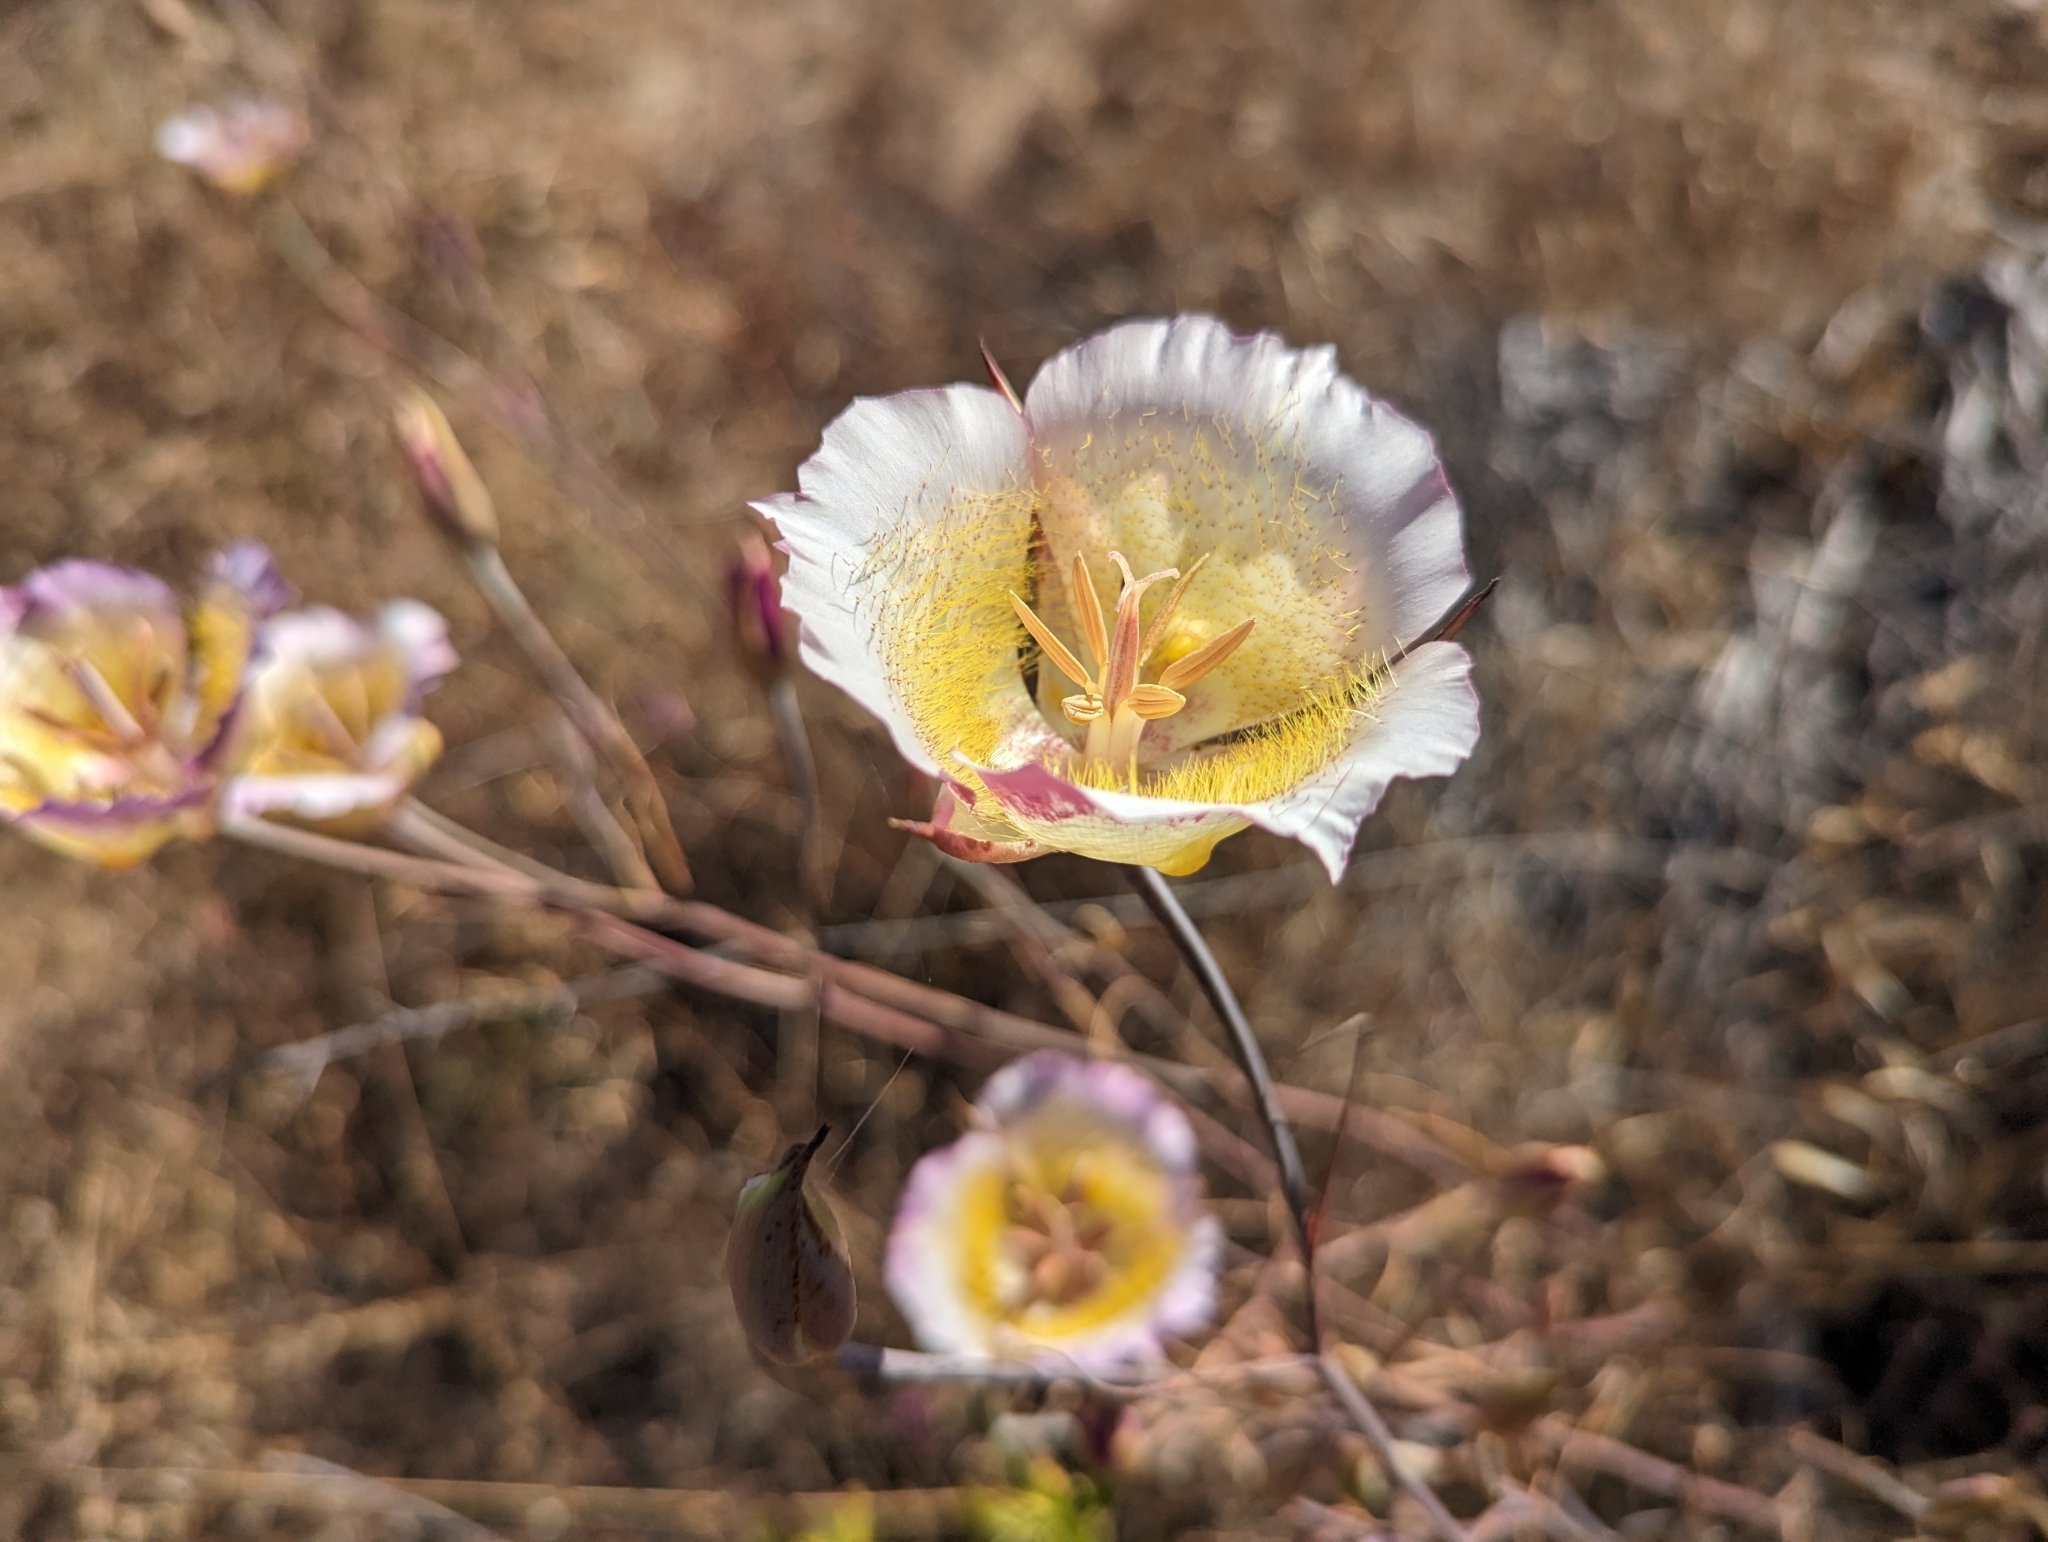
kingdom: Plantae
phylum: Tracheophyta
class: Liliopsida
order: Liliales
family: Liliaceae
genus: Calochortus
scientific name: Calochortus plummerae
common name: Plummer's mariposa-lily
